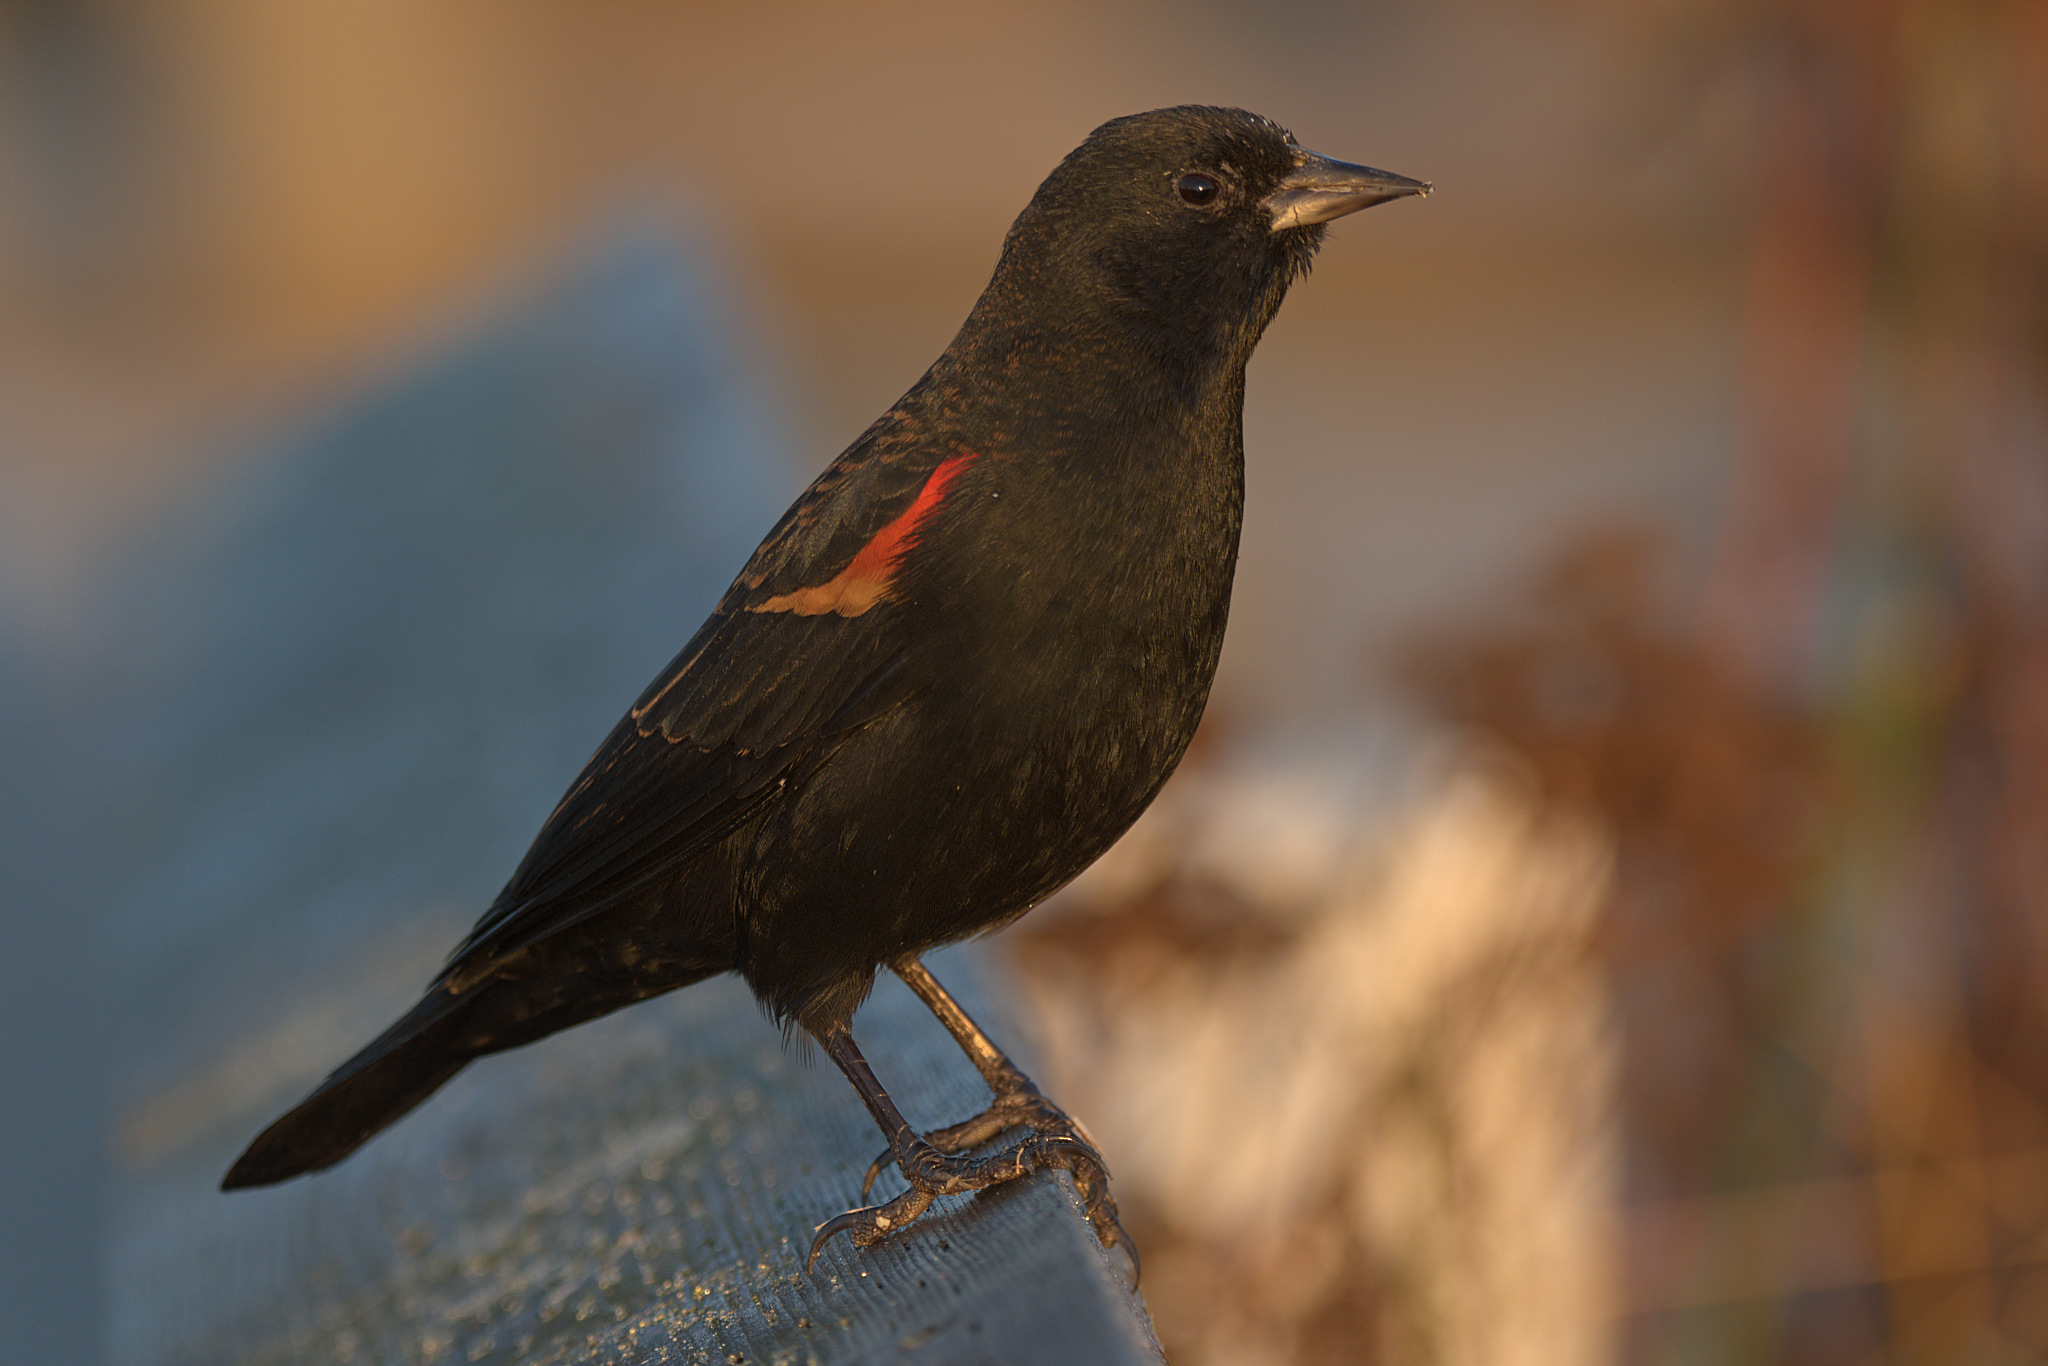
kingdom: Animalia
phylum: Chordata
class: Aves
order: Passeriformes
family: Icteridae
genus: Agelaius
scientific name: Agelaius phoeniceus
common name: Red-winged blackbird
